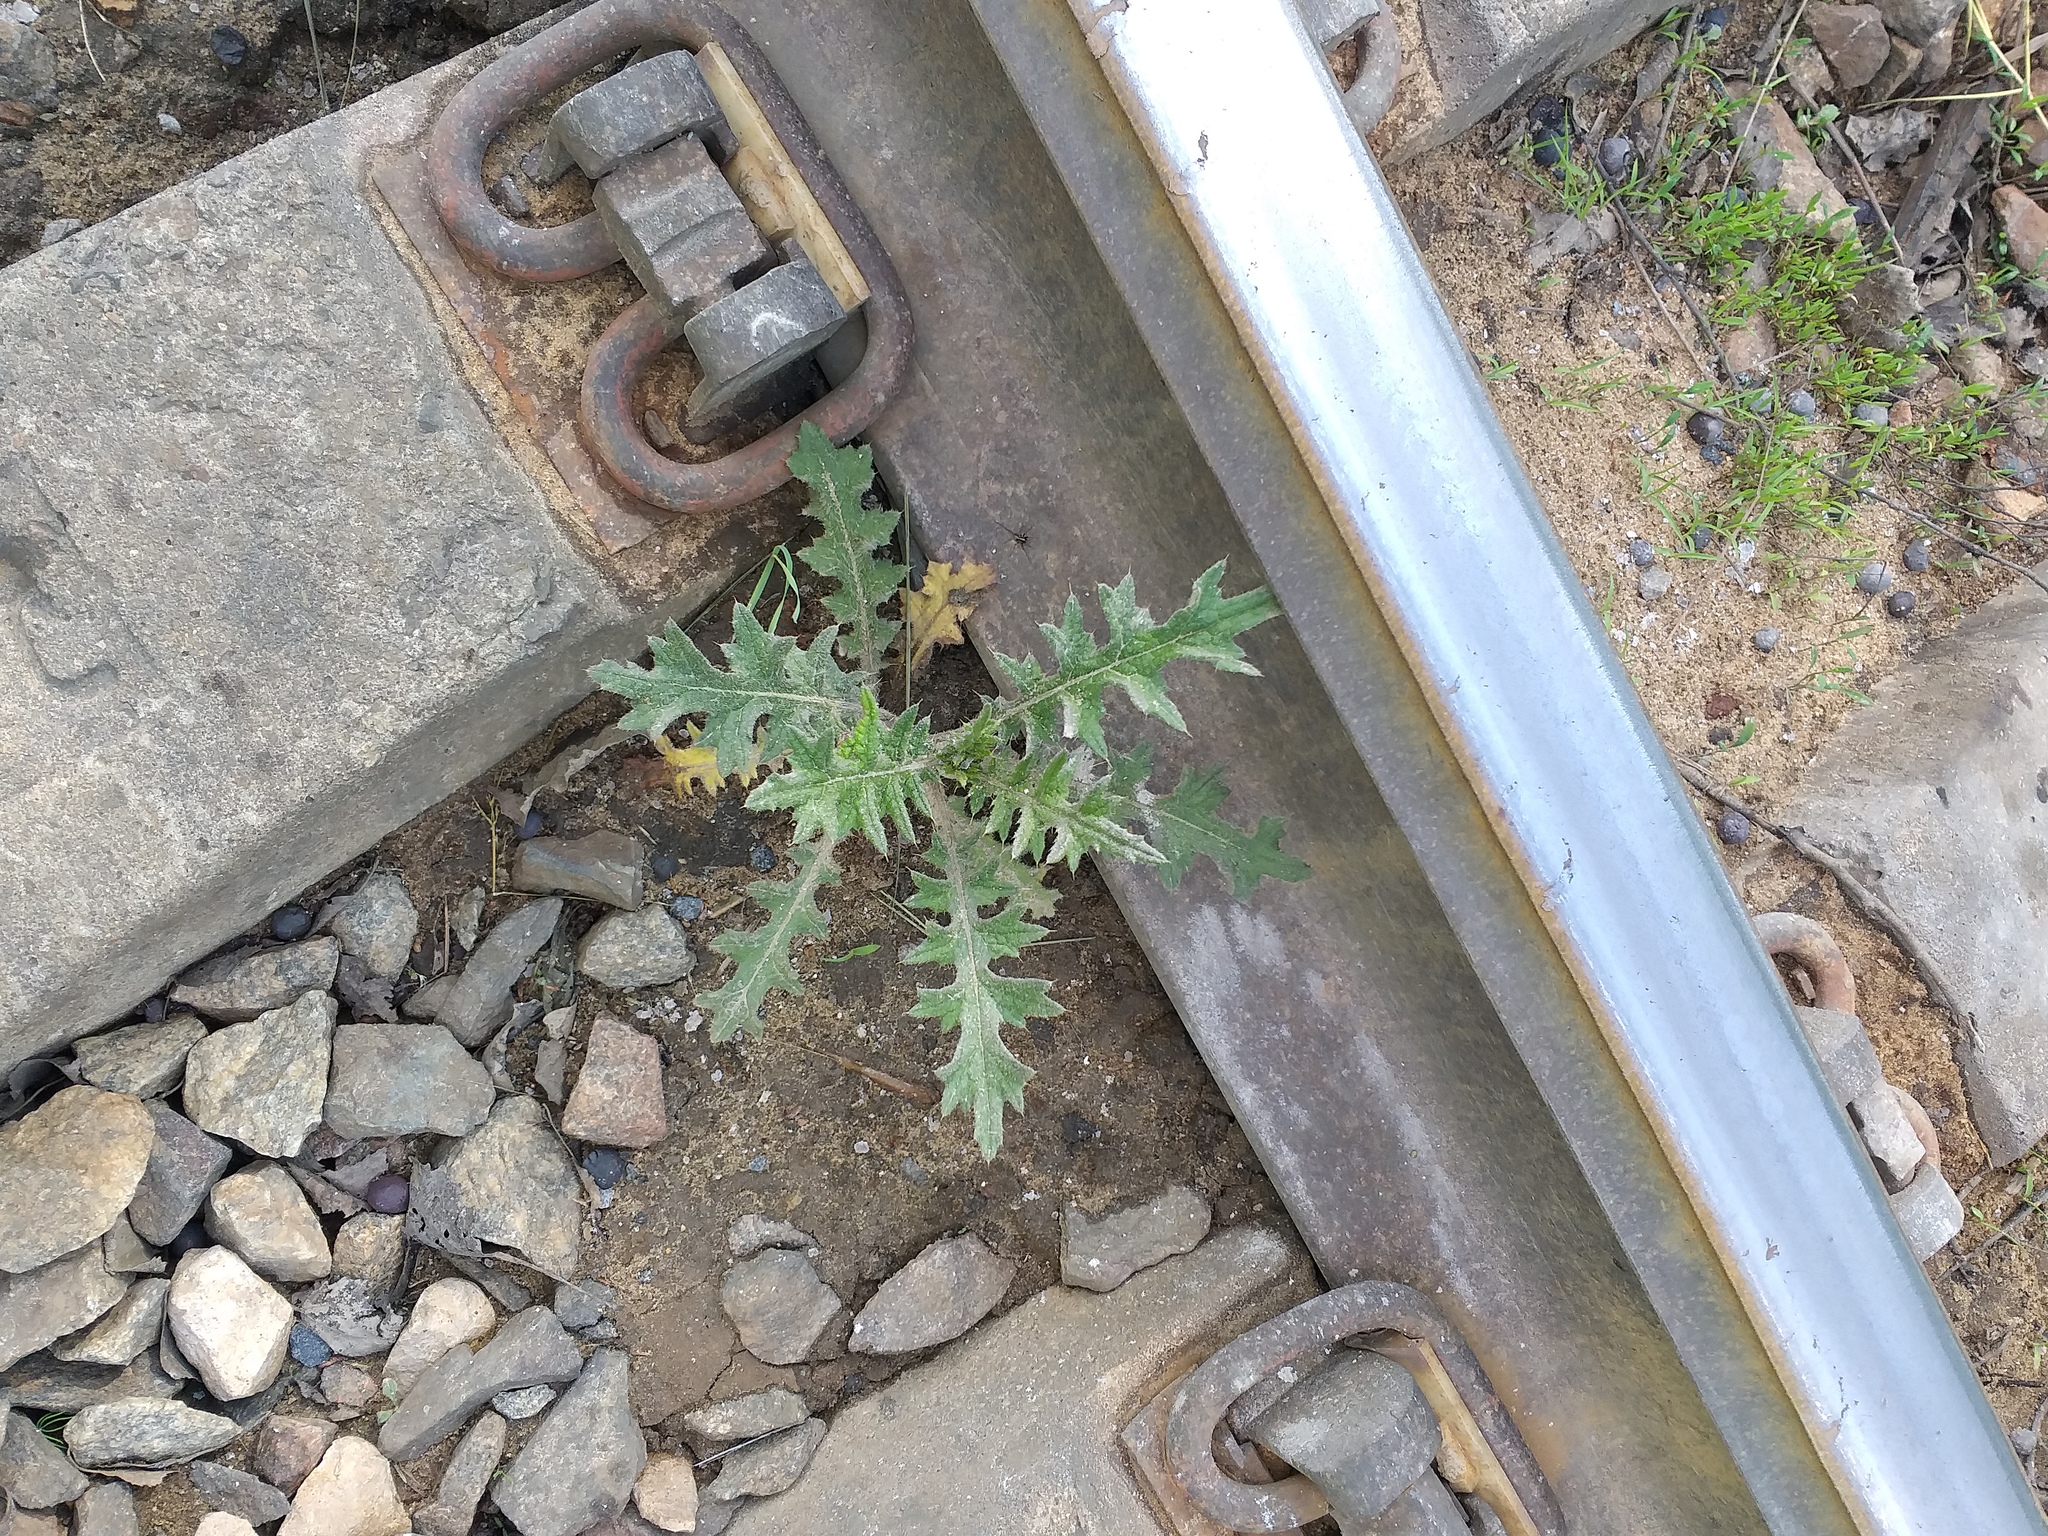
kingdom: Plantae
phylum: Tracheophyta
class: Magnoliopsida
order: Asterales
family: Asteraceae
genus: Cirsium
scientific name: Cirsium vulgare
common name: Bull thistle
